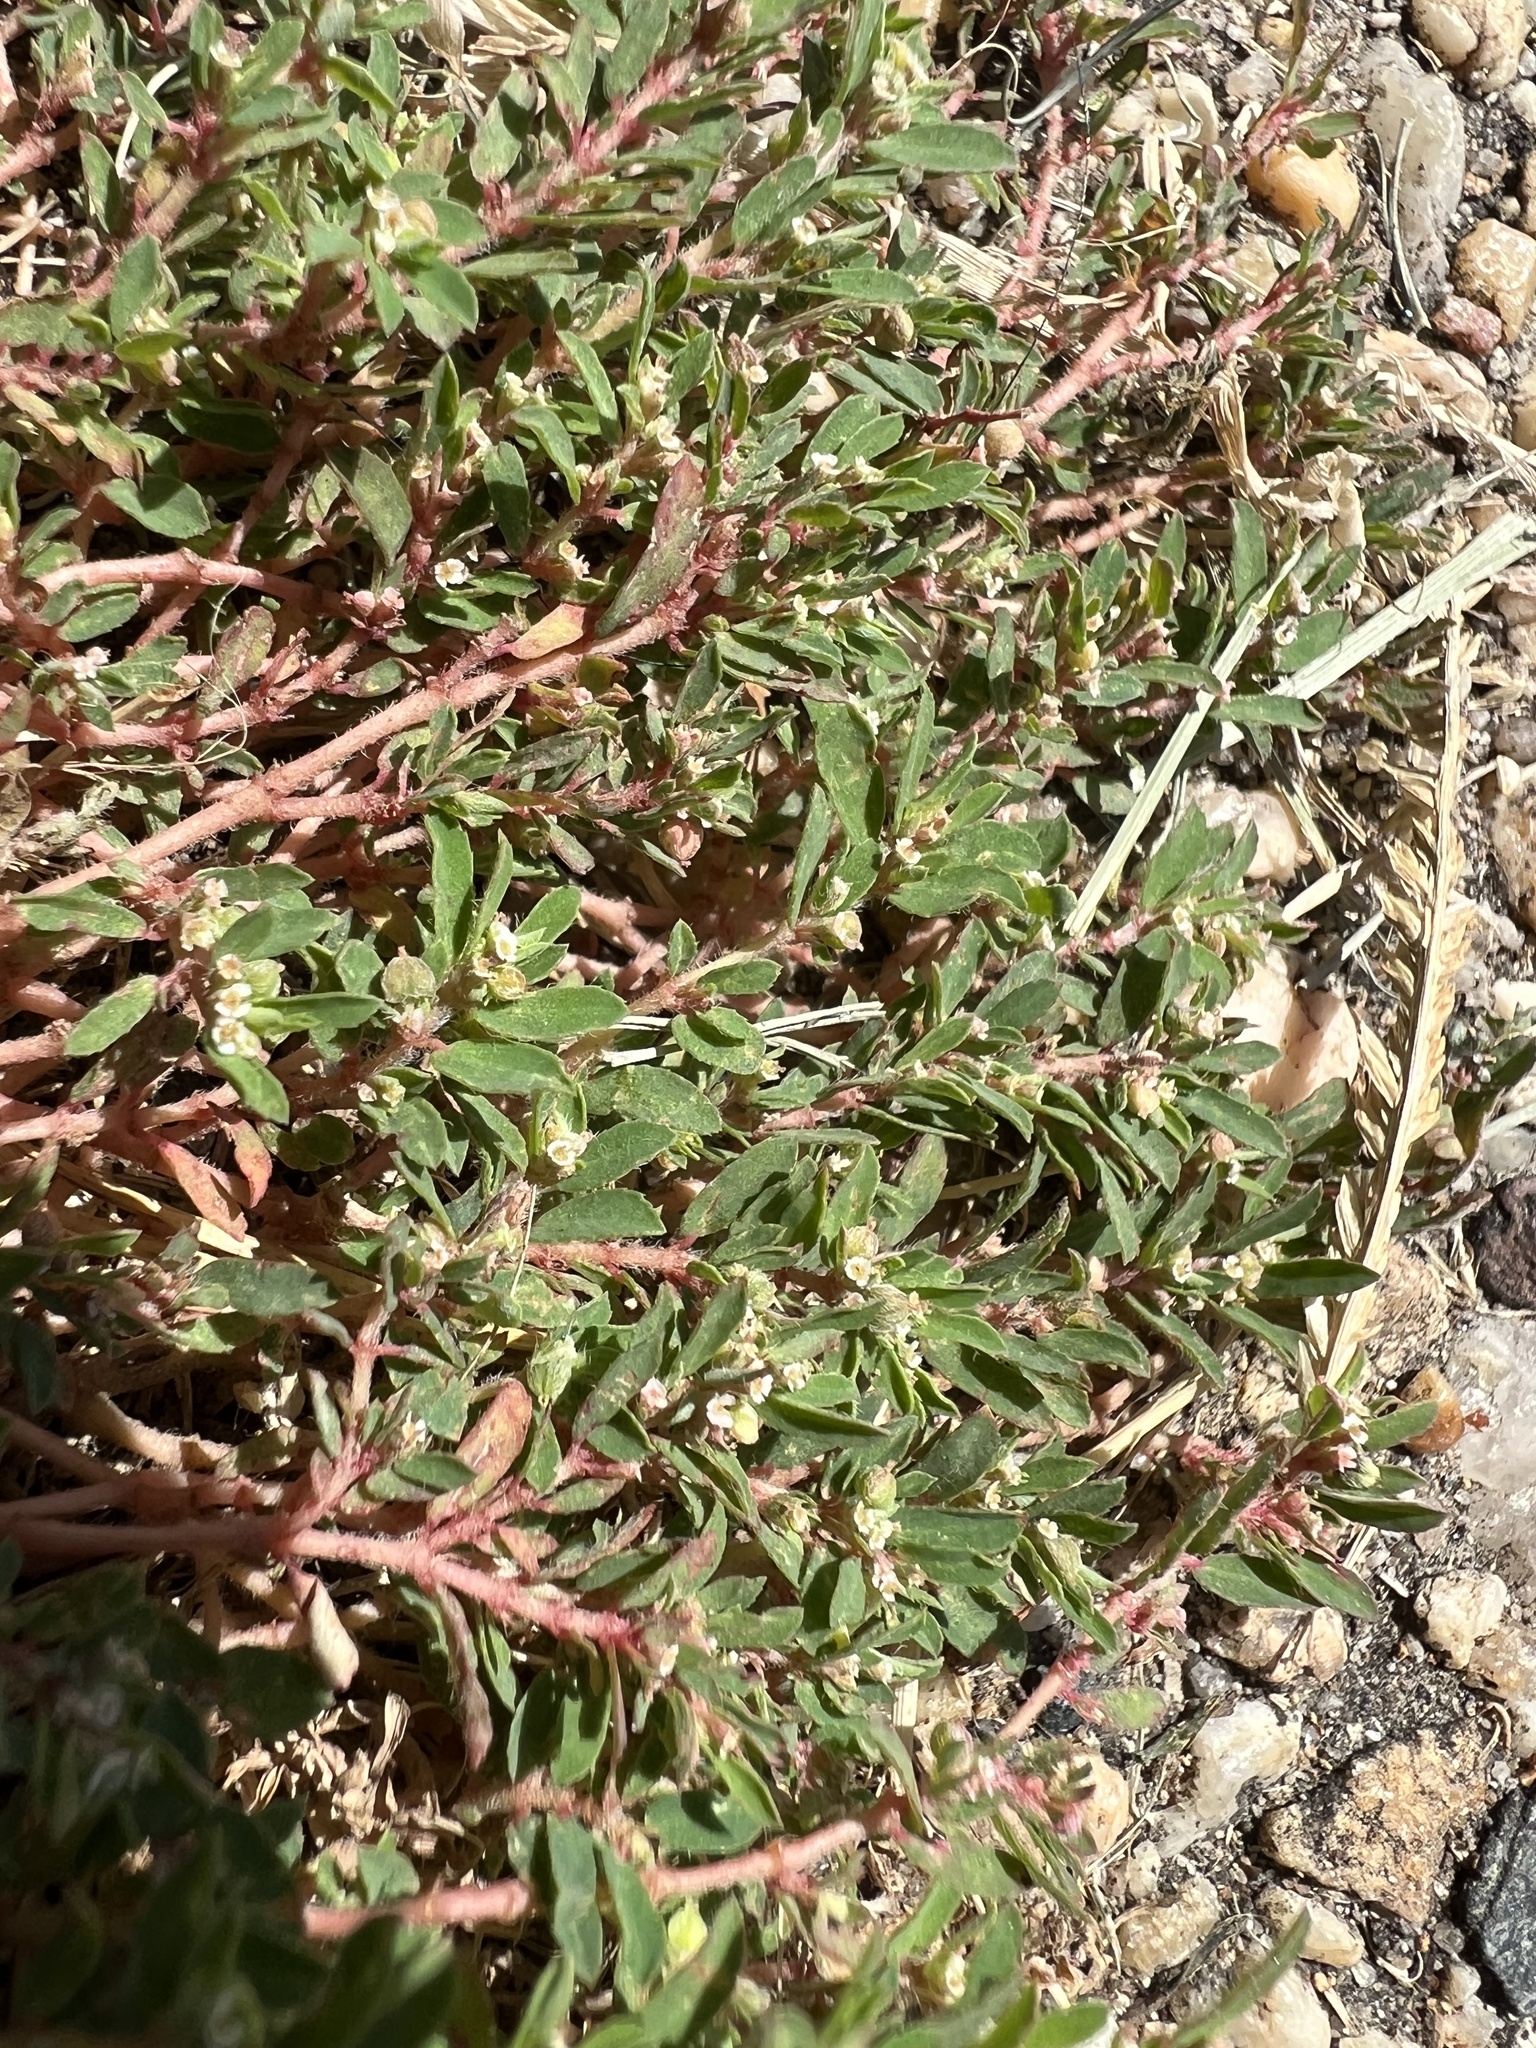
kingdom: Plantae
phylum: Tracheophyta
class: Magnoliopsida
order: Malpighiales
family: Euphorbiaceae
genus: Euphorbia
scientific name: Euphorbia maculata
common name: Spotted spurge
